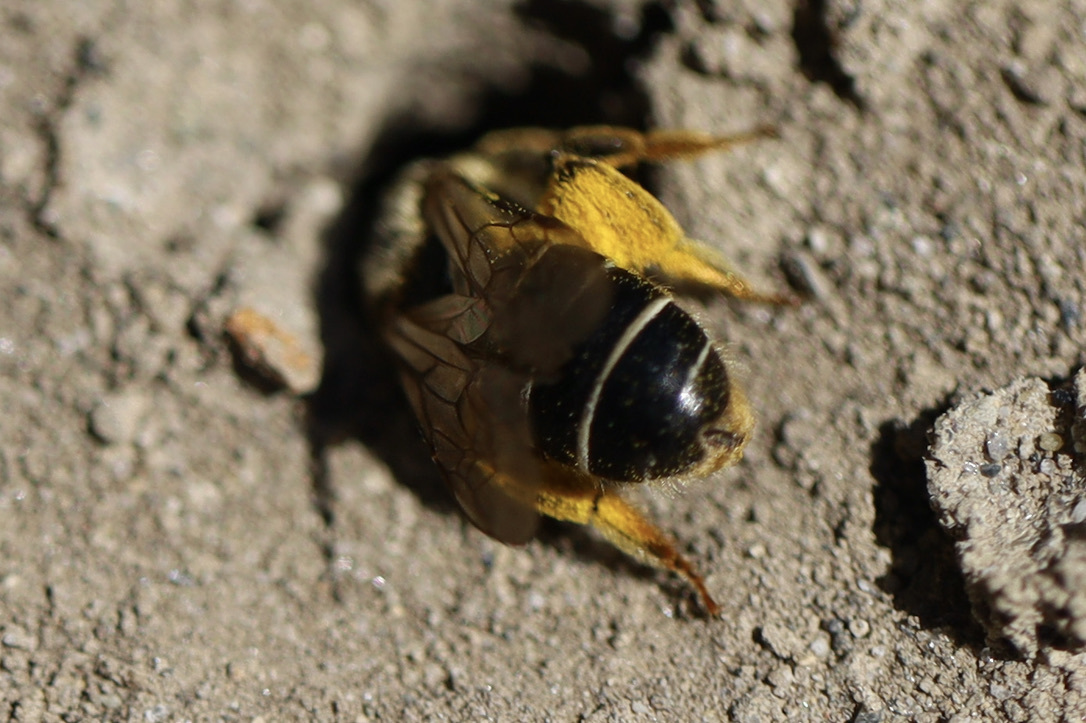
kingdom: Animalia
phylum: Arthropoda
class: Insecta
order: Hymenoptera
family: Halictidae
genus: Halictus
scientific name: Halictus rubicundus
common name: Orange-legged furrow bee
